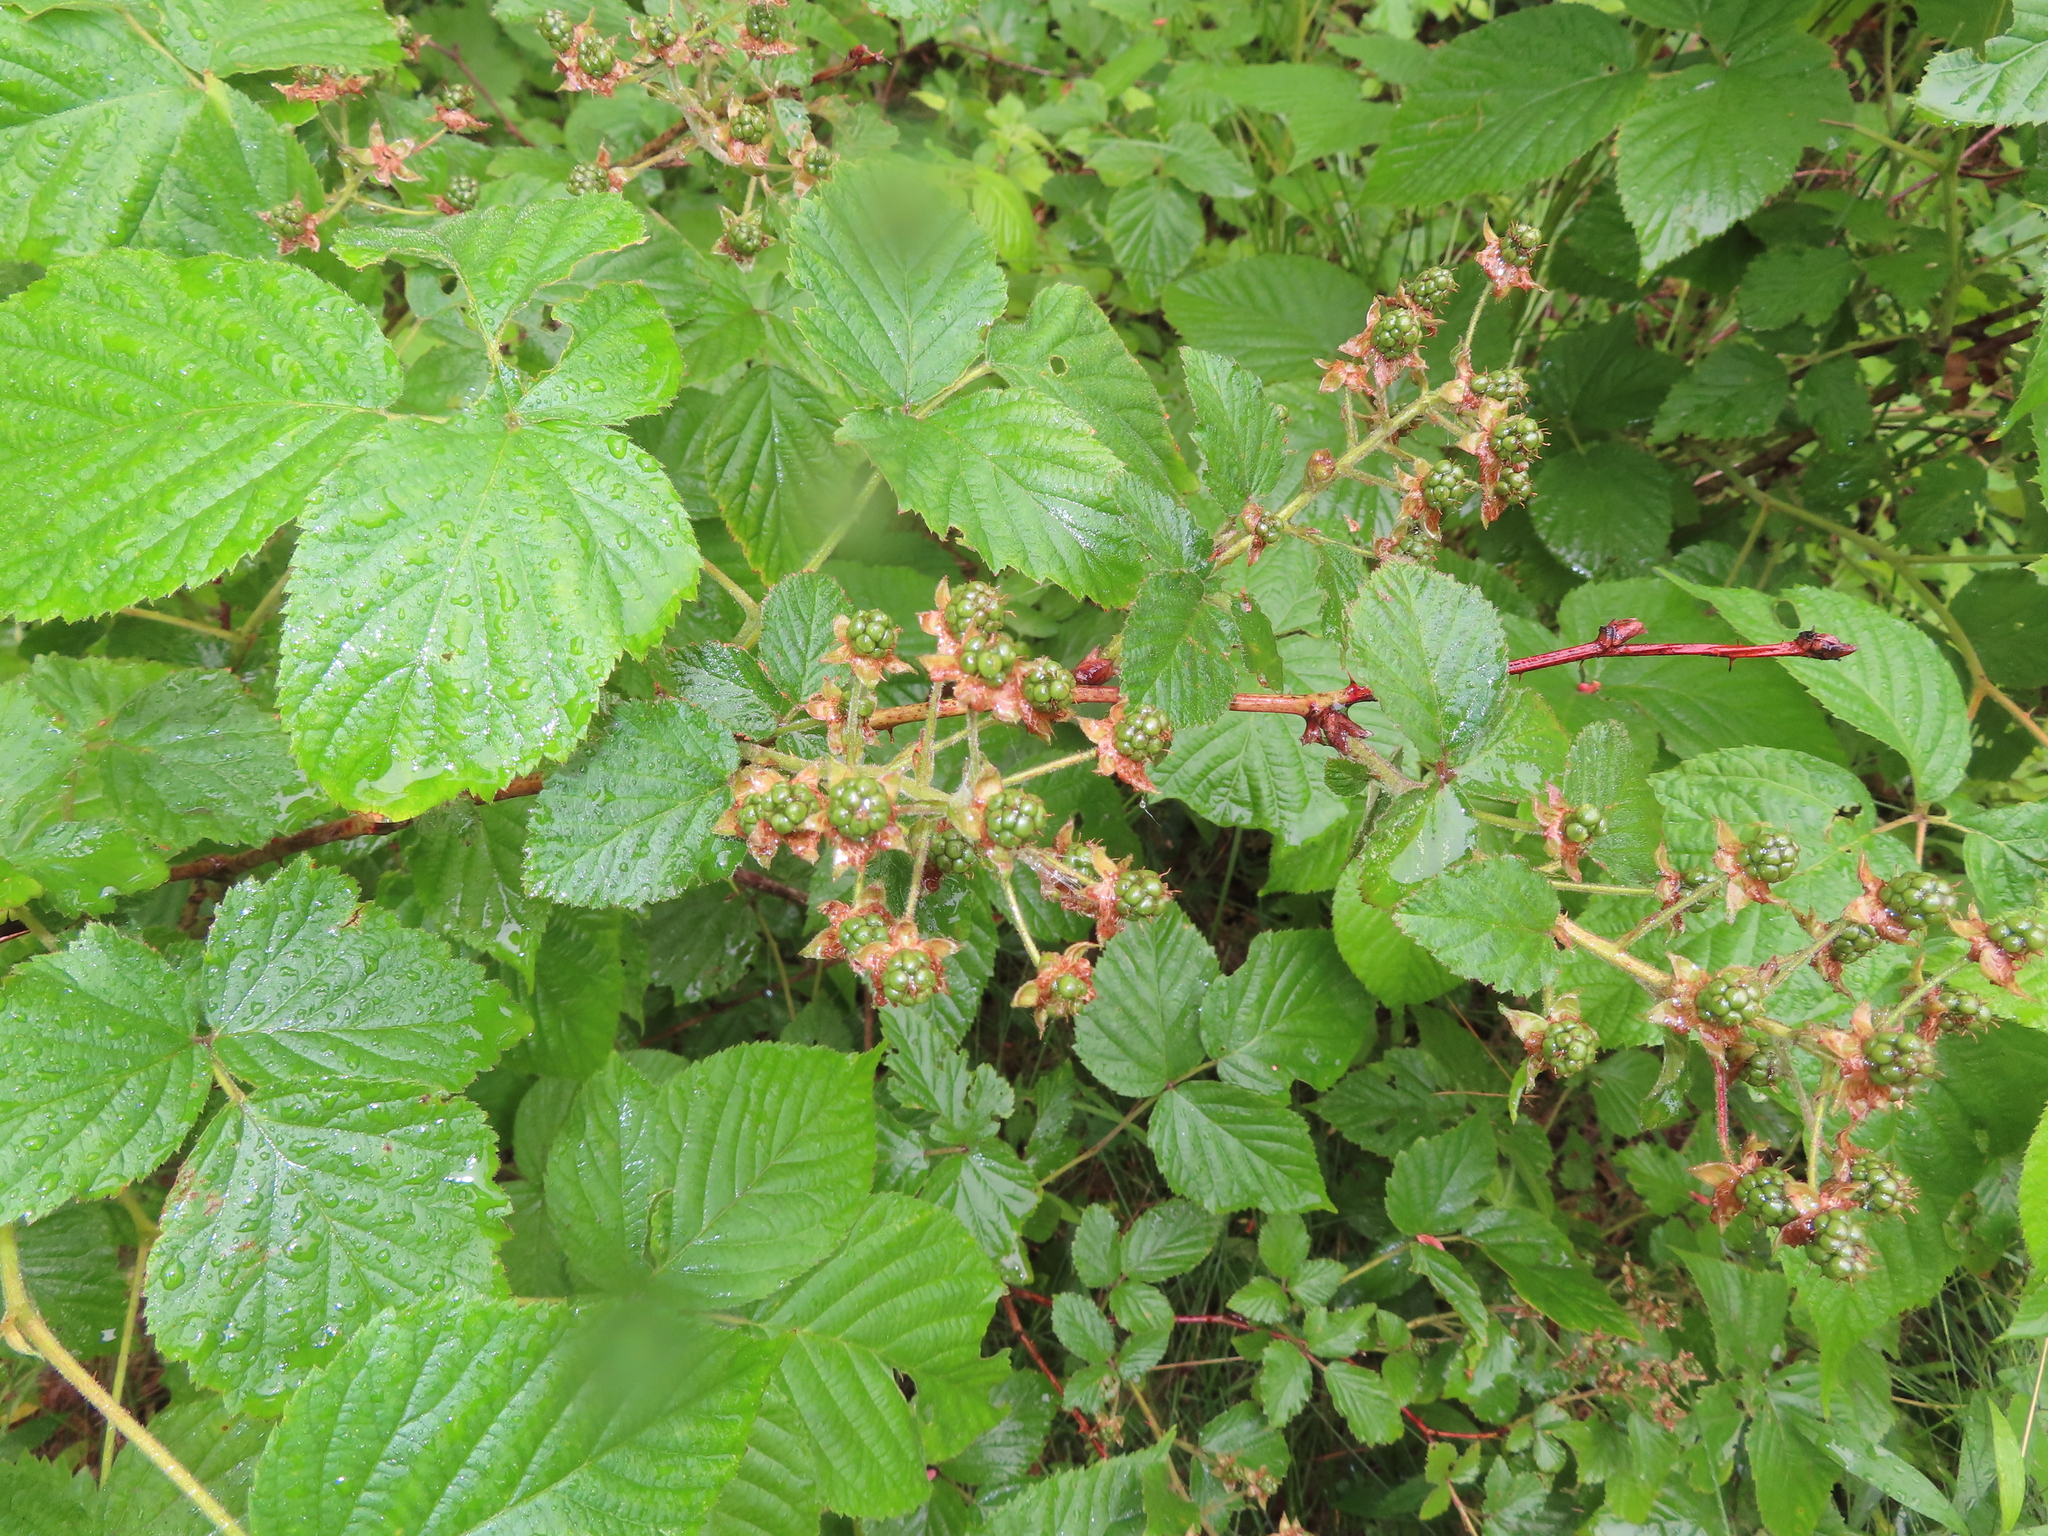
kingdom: Plantae
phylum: Tracheophyta
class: Magnoliopsida
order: Rosales
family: Rosaceae
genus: Rubus
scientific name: Rubus allegheniensis
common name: Allegheny blackberry
